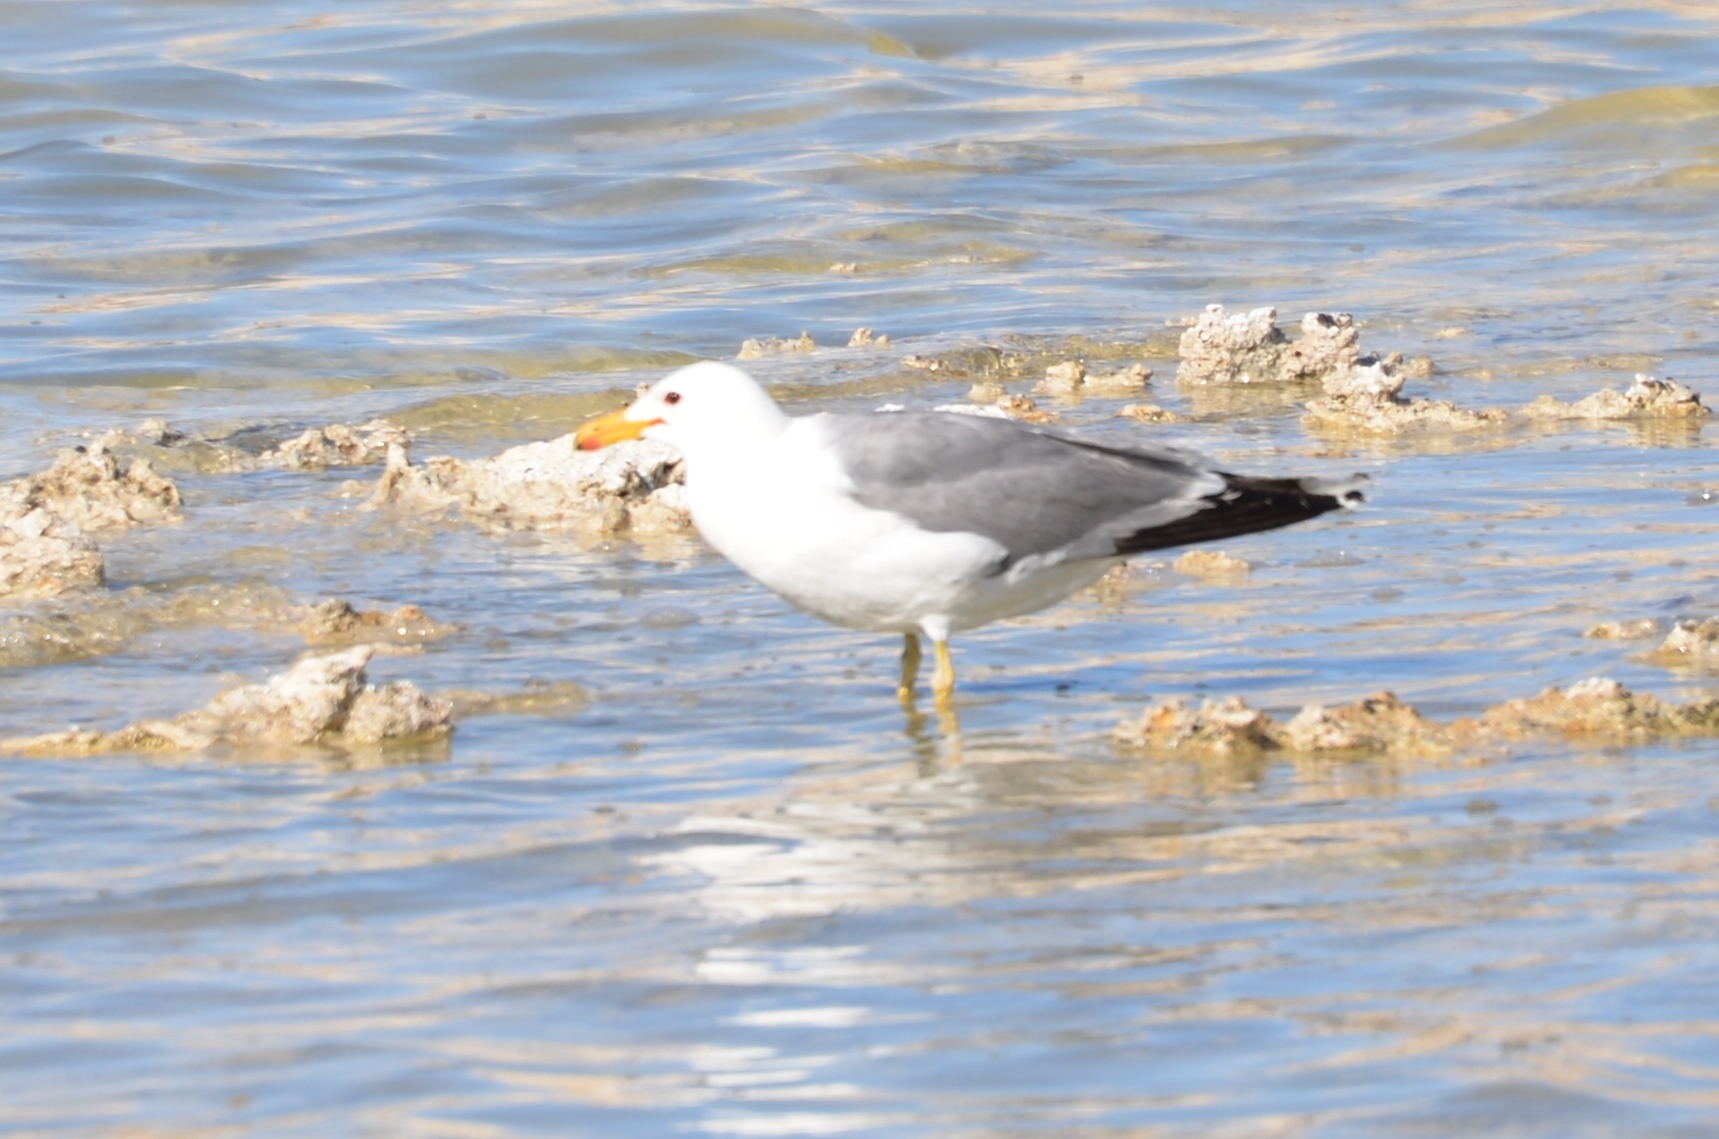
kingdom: Animalia
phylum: Chordata
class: Aves
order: Charadriiformes
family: Laridae
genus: Larus
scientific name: Larus californicus
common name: California gull
